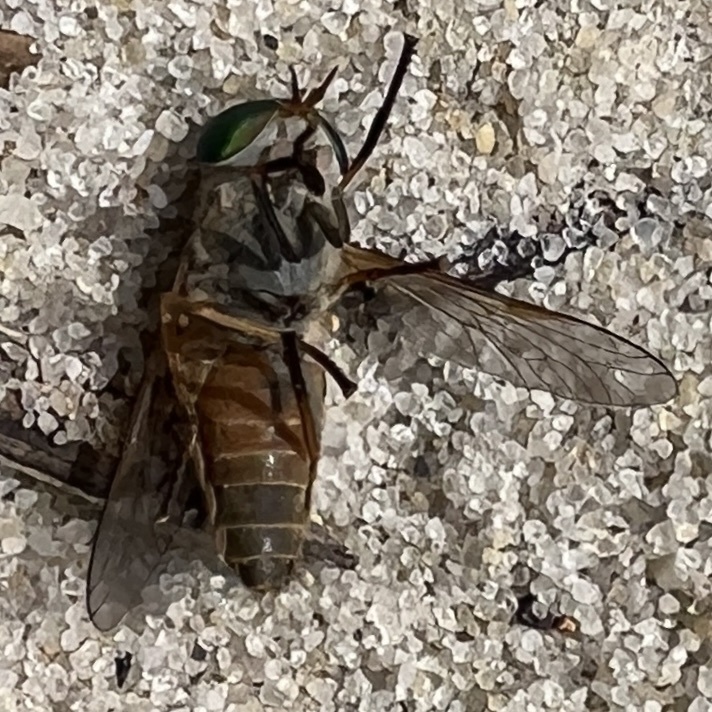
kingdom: Animalia
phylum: Arthropoda
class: Insecta
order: Diptera
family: Tabanidae
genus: Tabanus
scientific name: Tabanus
